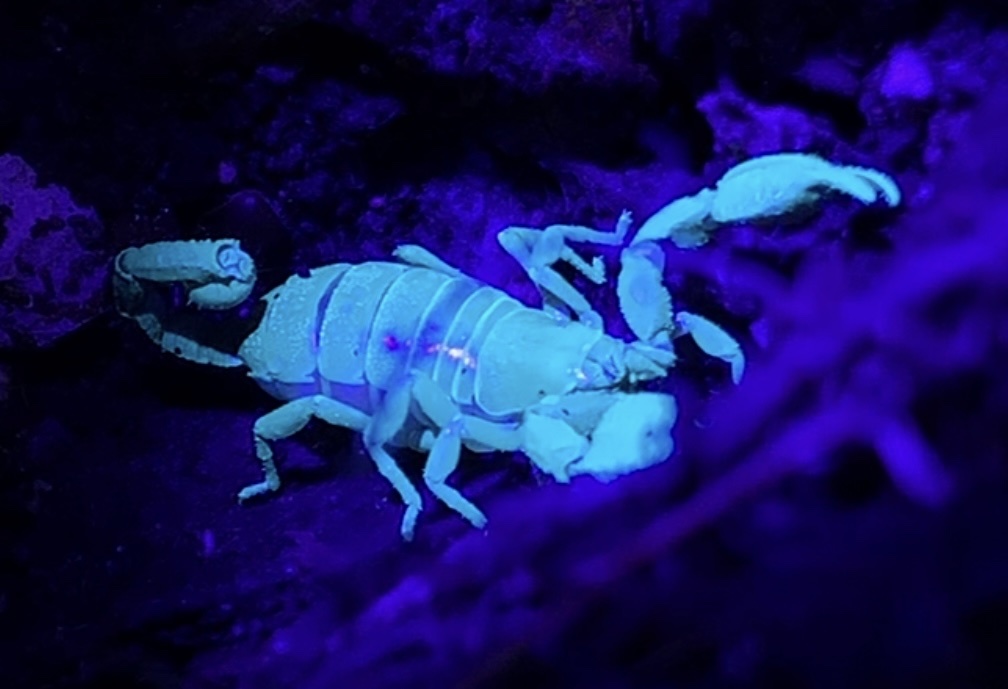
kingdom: Animalia
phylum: Arthropoda
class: Arachnida
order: Scorpiones
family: Belisariidae
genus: Belisarius
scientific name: Belisarius xambeui
